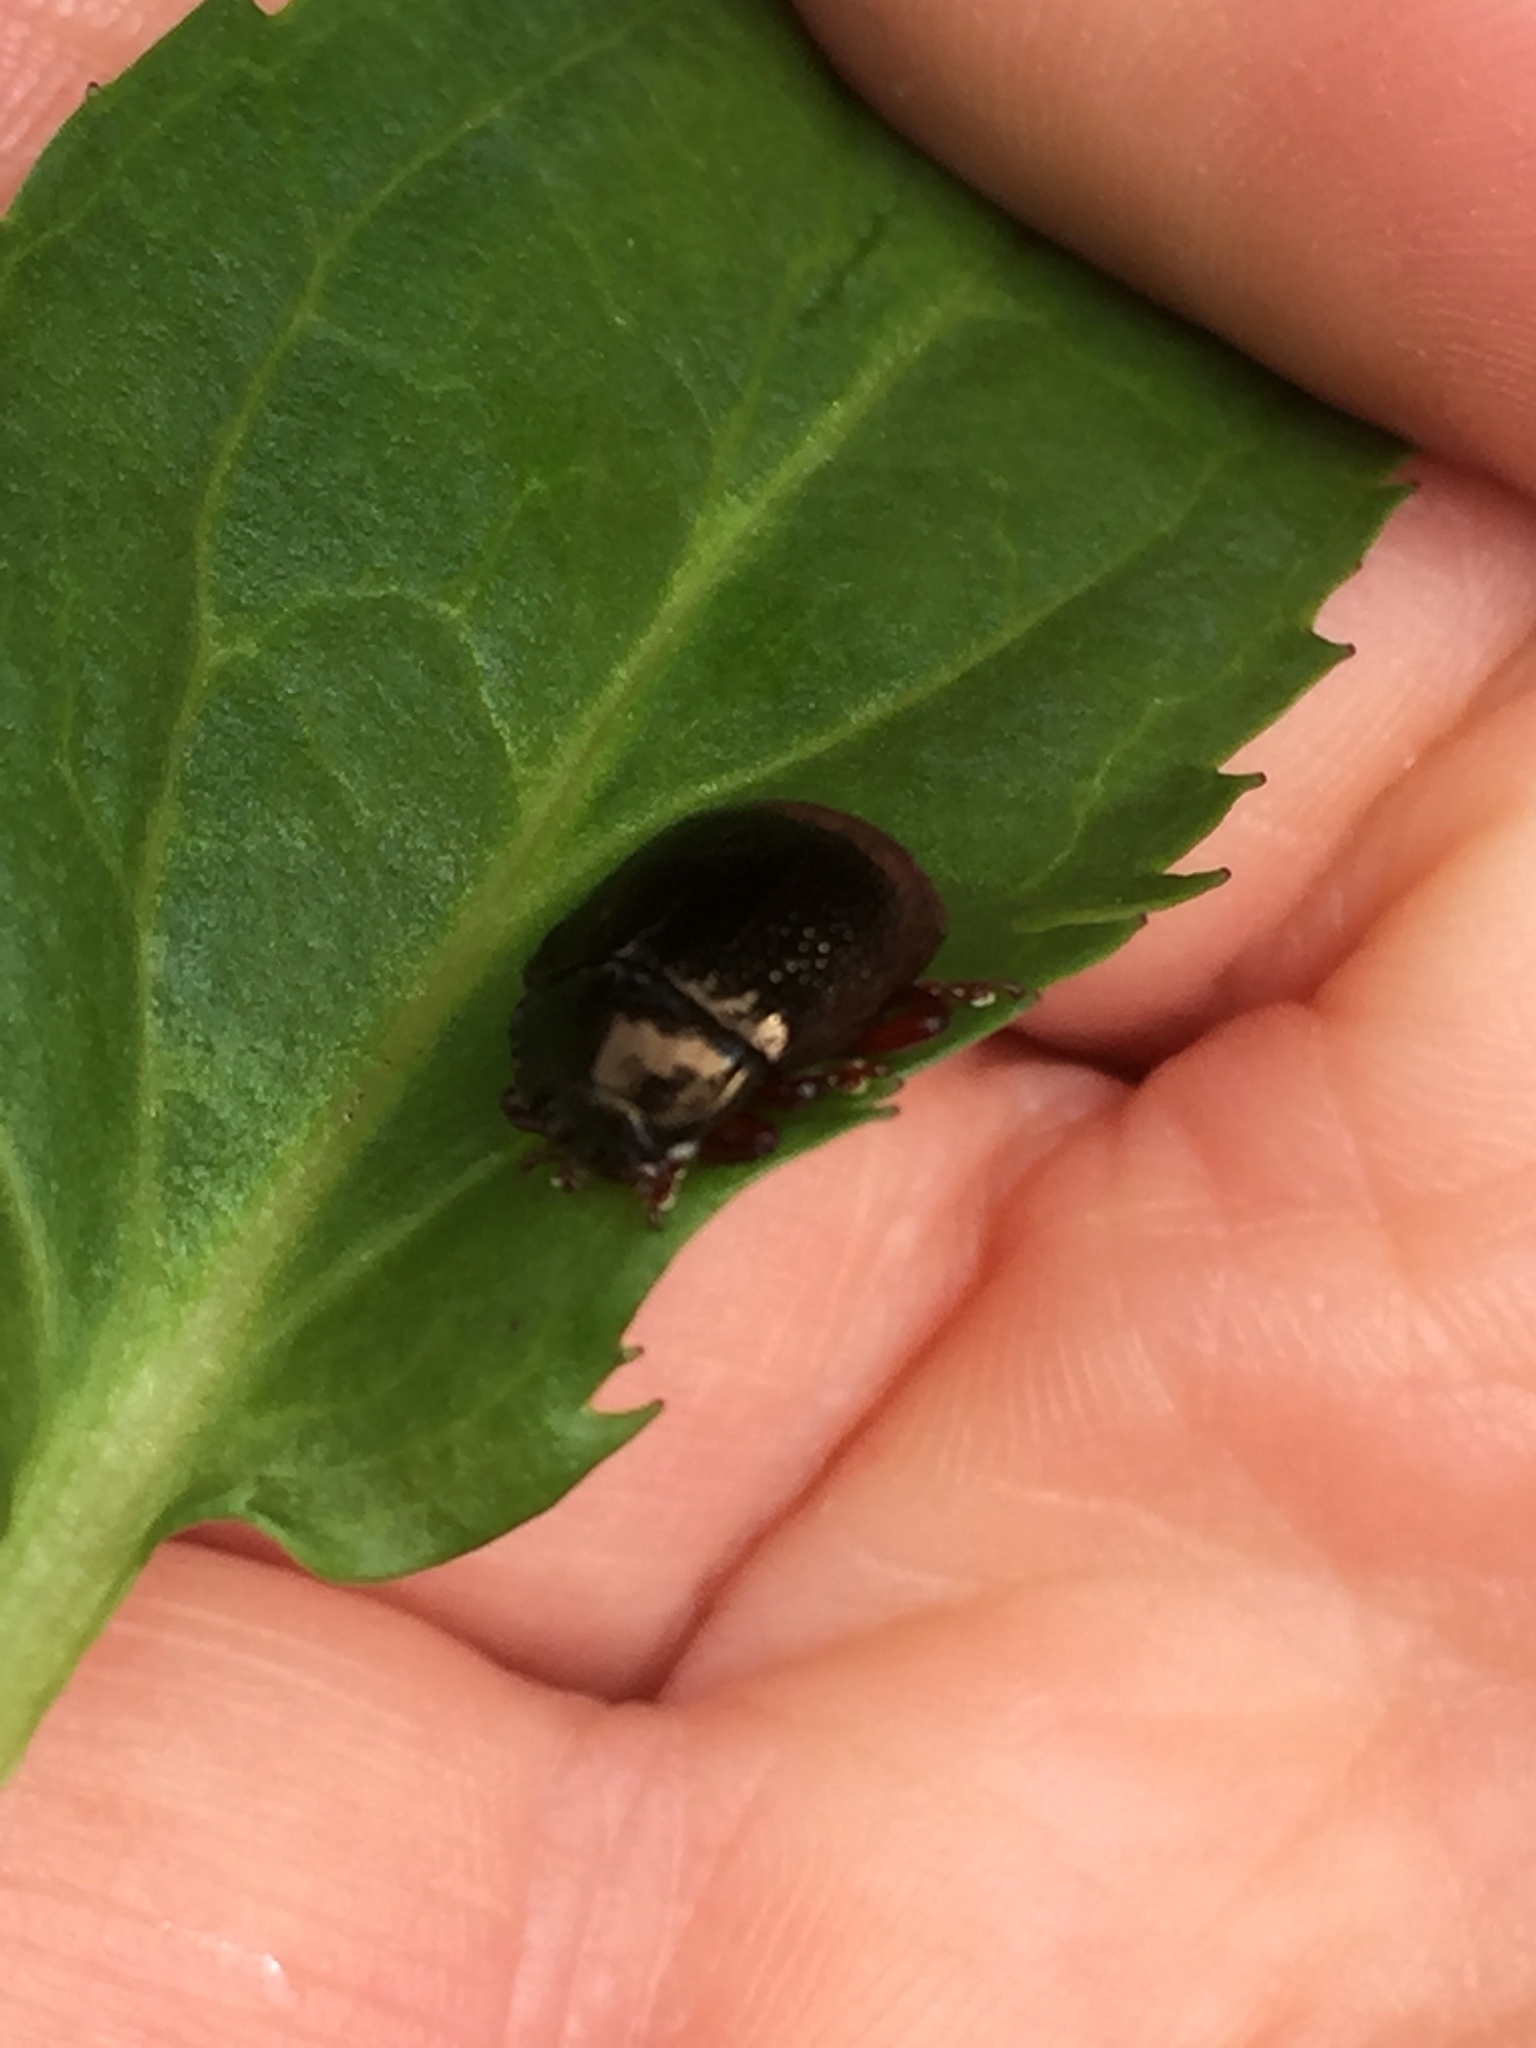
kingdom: Animalia
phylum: Arthropoda
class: Insecta
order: Coleoptera
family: Chrysomelidae
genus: Chrysolina
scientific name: Chrysolina bankii
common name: Leaf beetle
